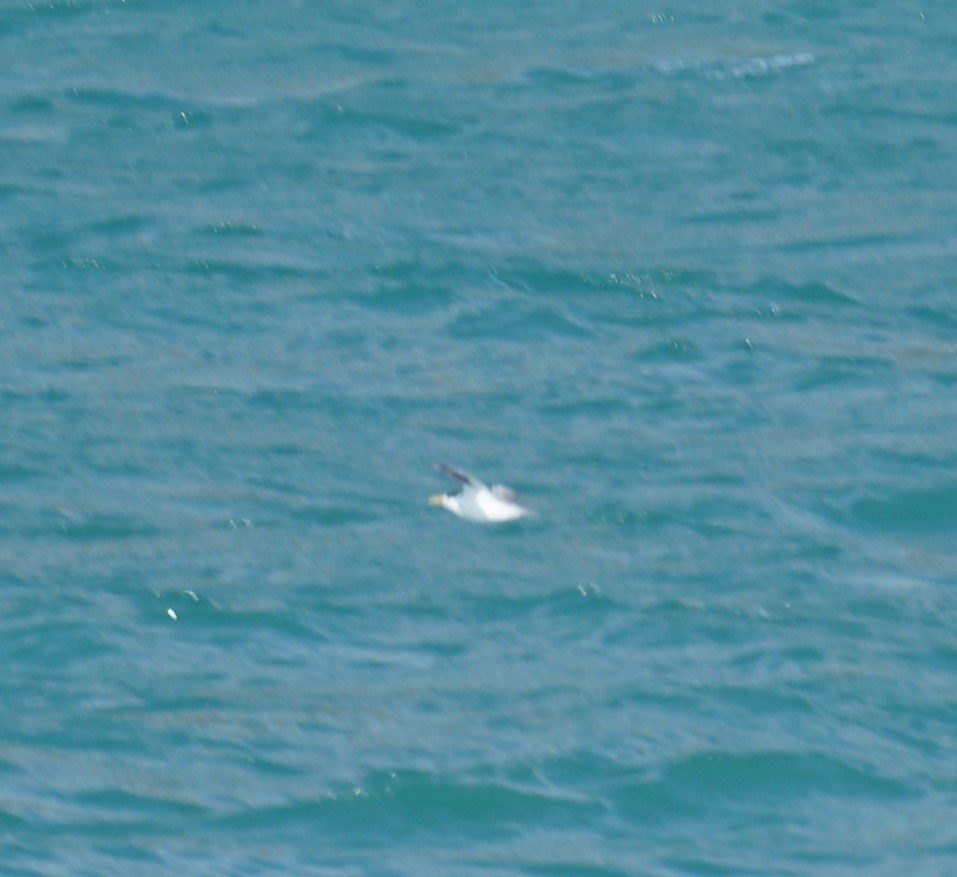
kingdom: Animalia
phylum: Chordata
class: Aves
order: Charadriiformes
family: Laridae
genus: Thalasseus
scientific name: Thalasseus bergii
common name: Greater crested tern
